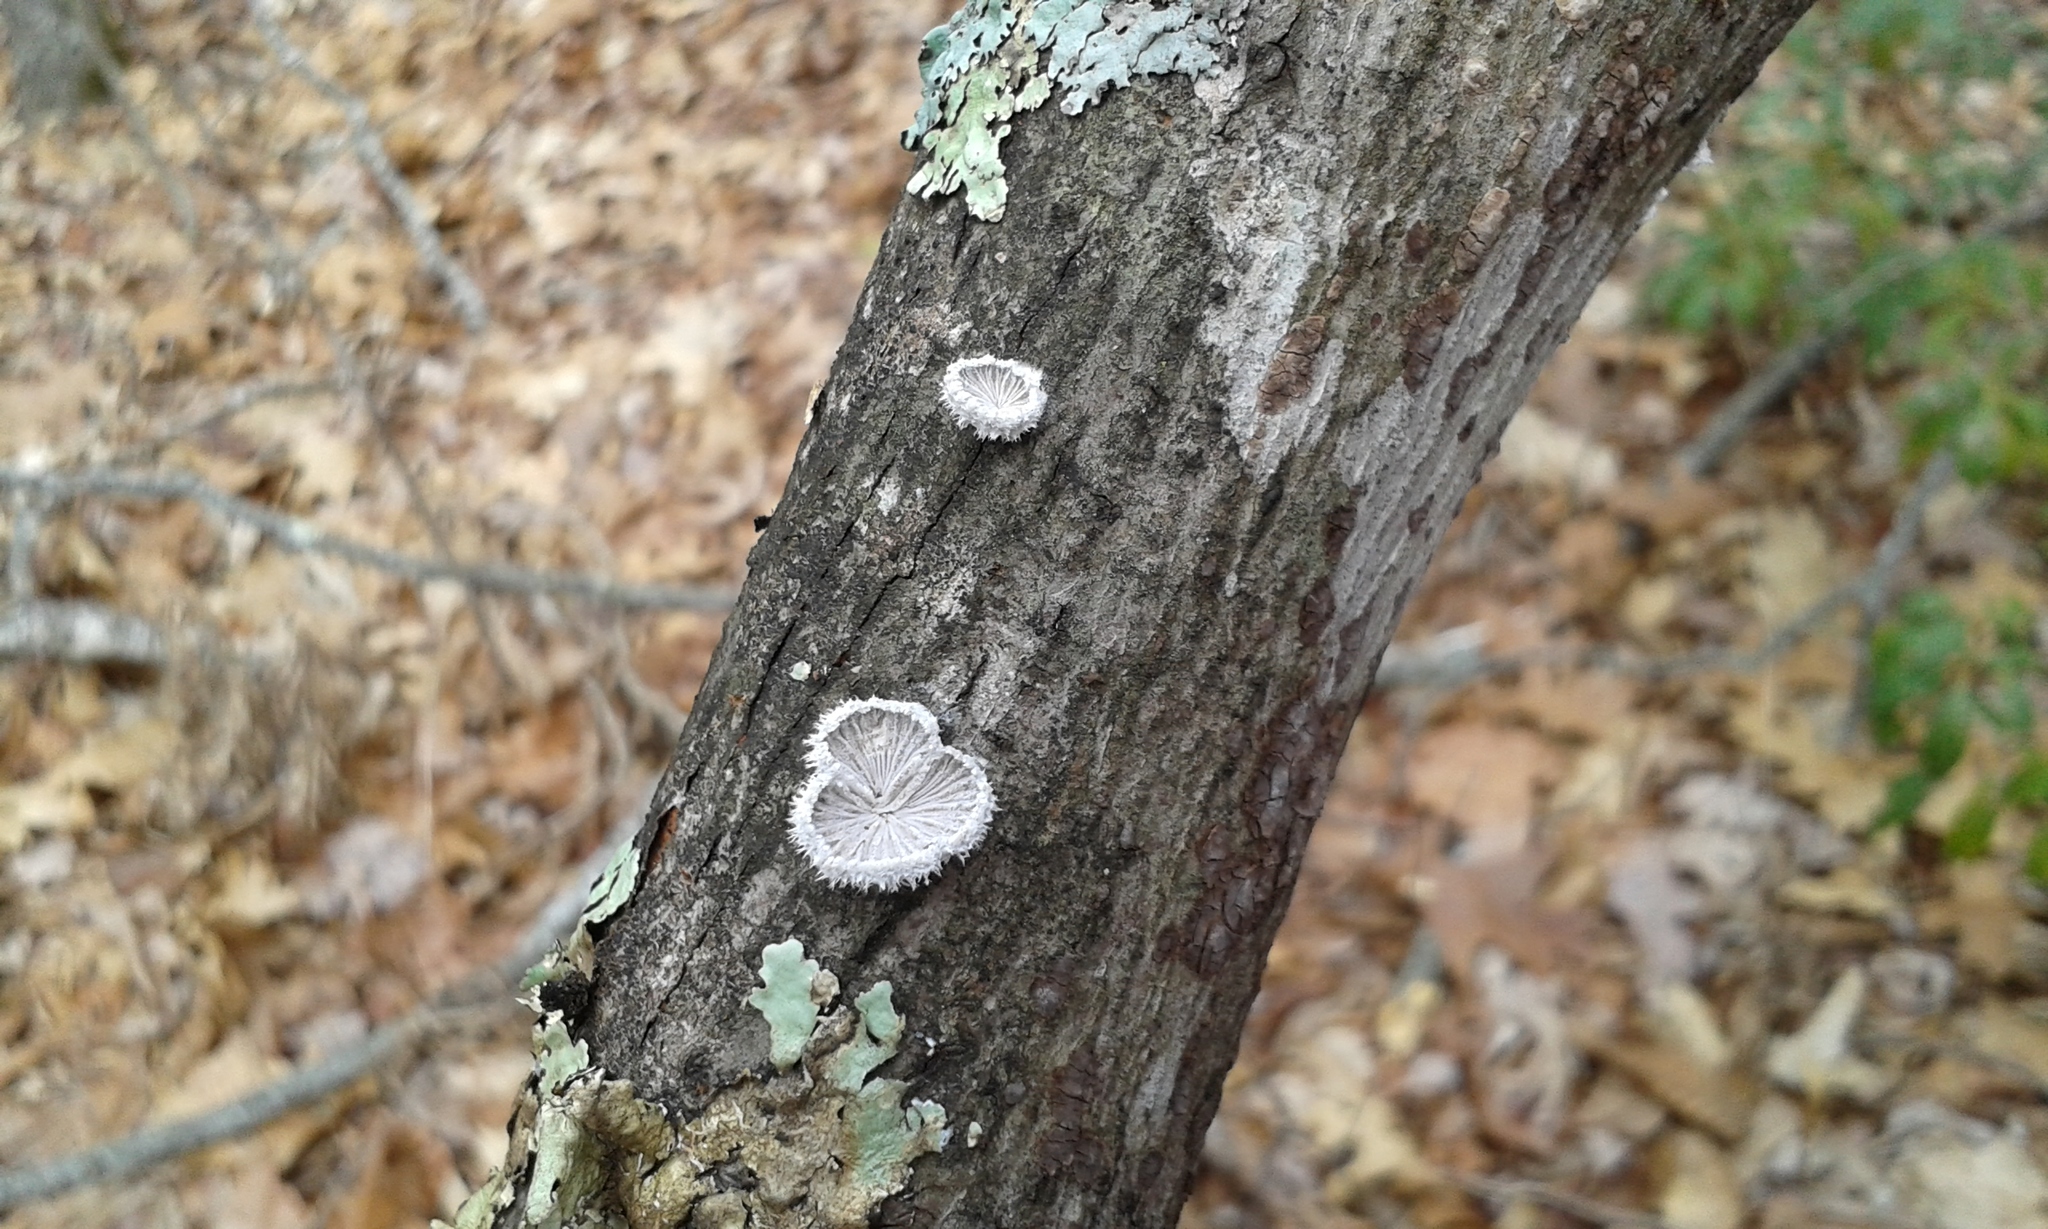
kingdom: Fungi
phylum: Basidiomycota
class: Agaricomycetes
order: Agaricales
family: Schizophyllaceae
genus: Schizophyllum
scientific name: Schizophyllum commune
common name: Common porecrust
